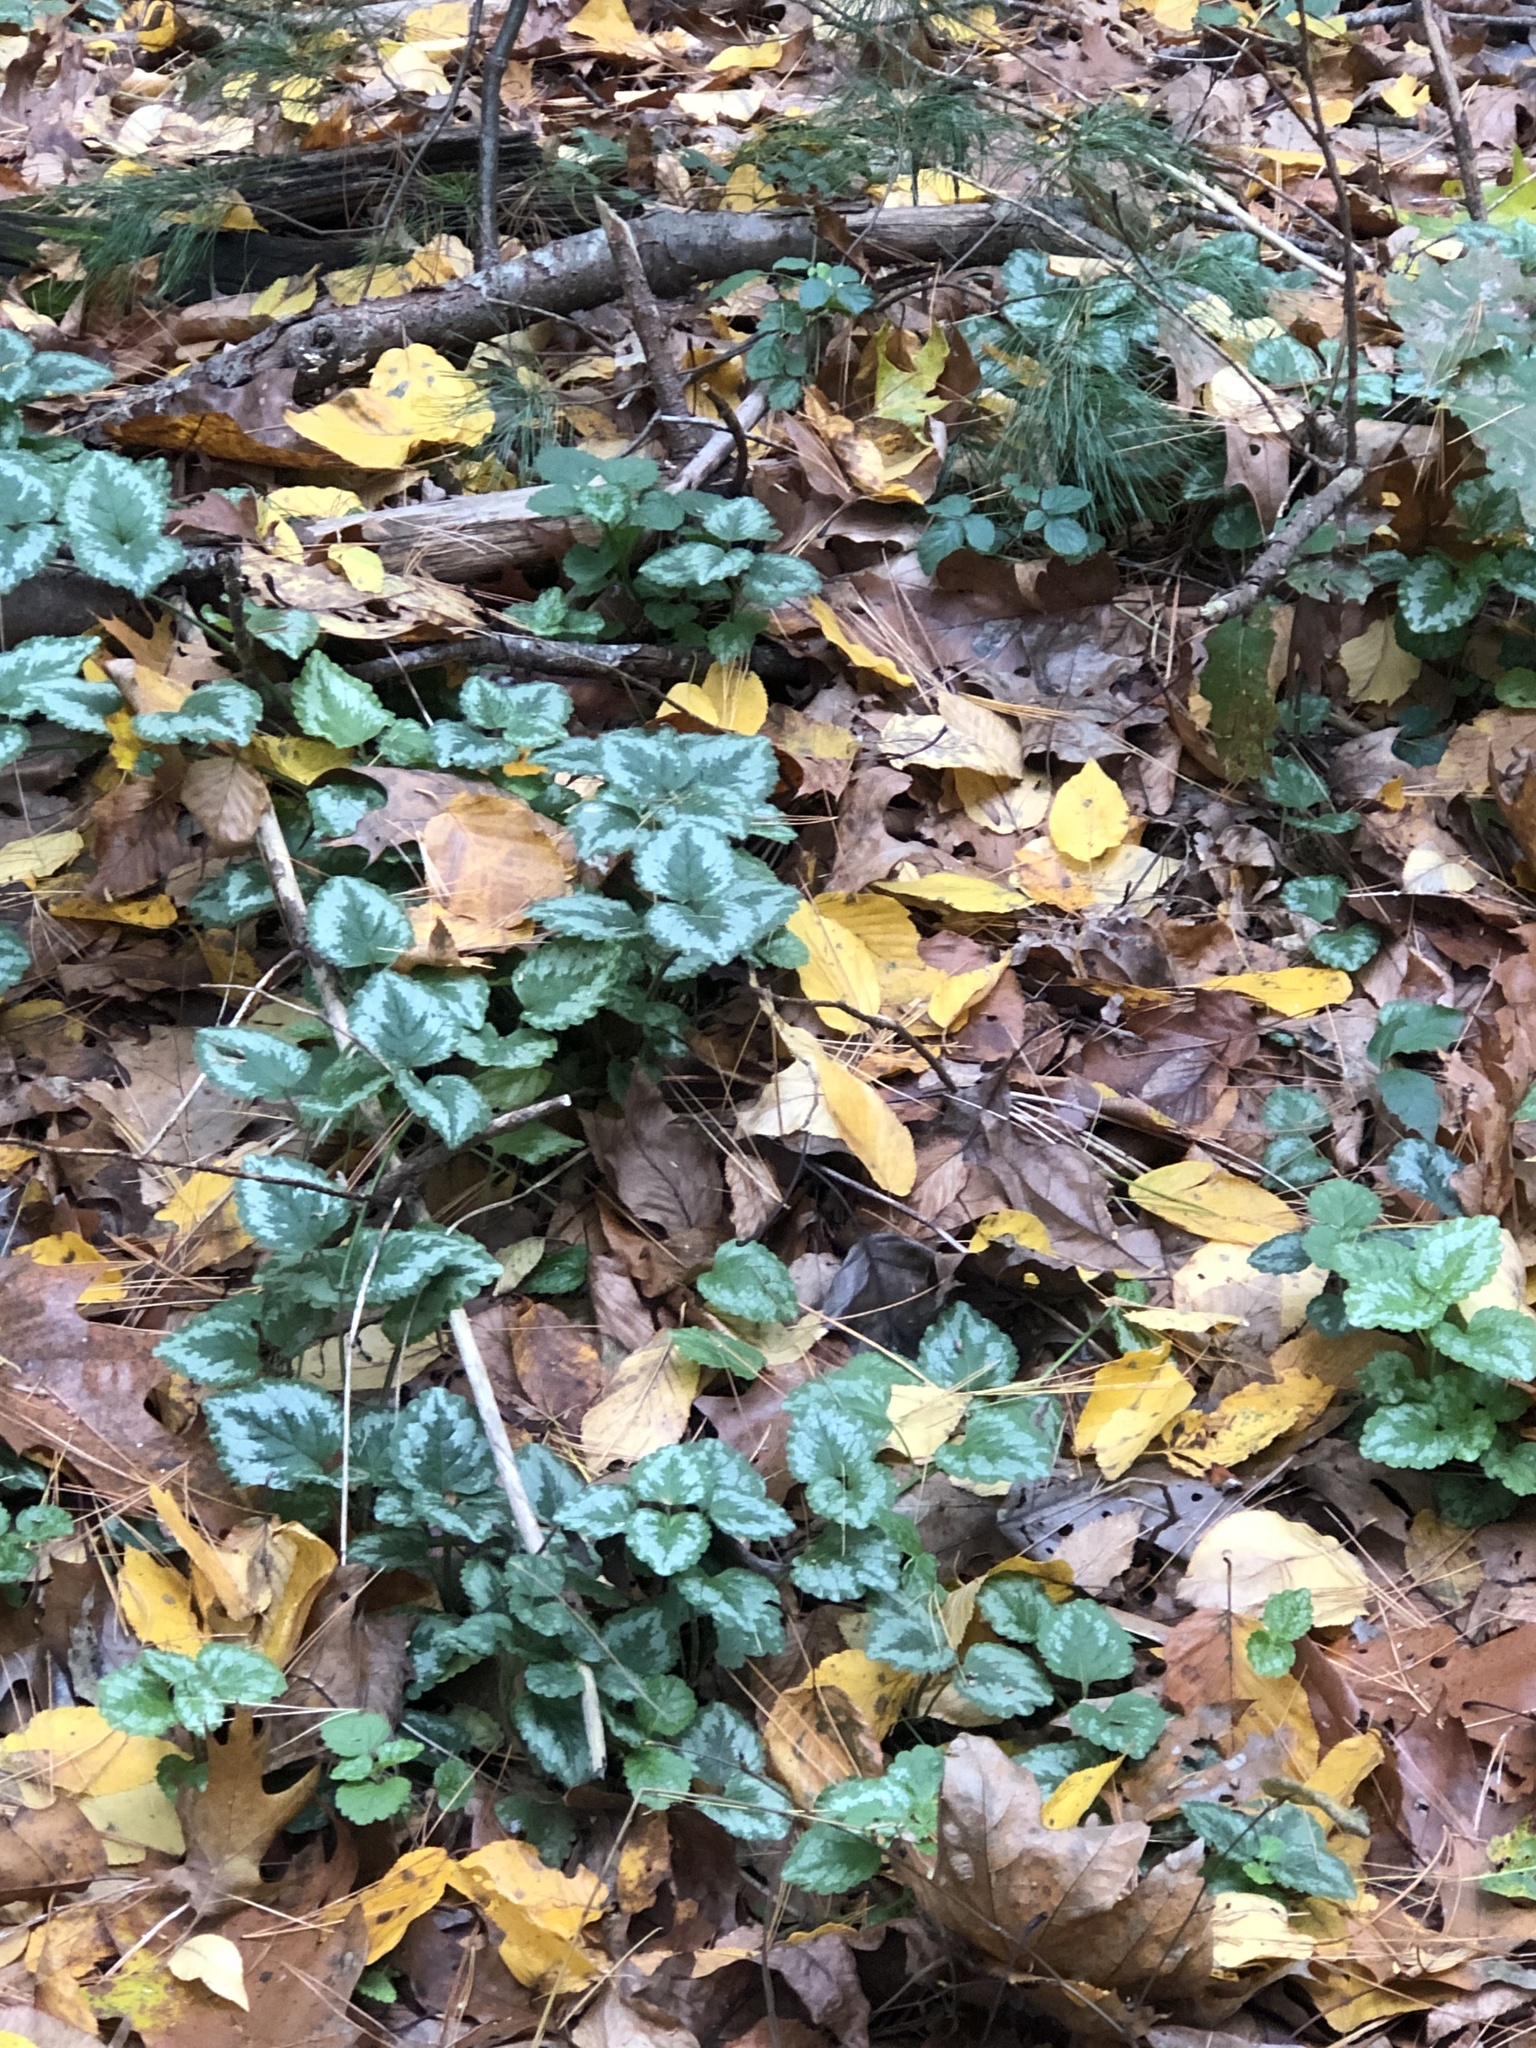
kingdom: Plantae
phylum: Tracheophyta
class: Magnoliopsida
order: Lamiales
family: Lamiaceae
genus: Lamium
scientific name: Lamium galeobdolon
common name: Yellow archangel
